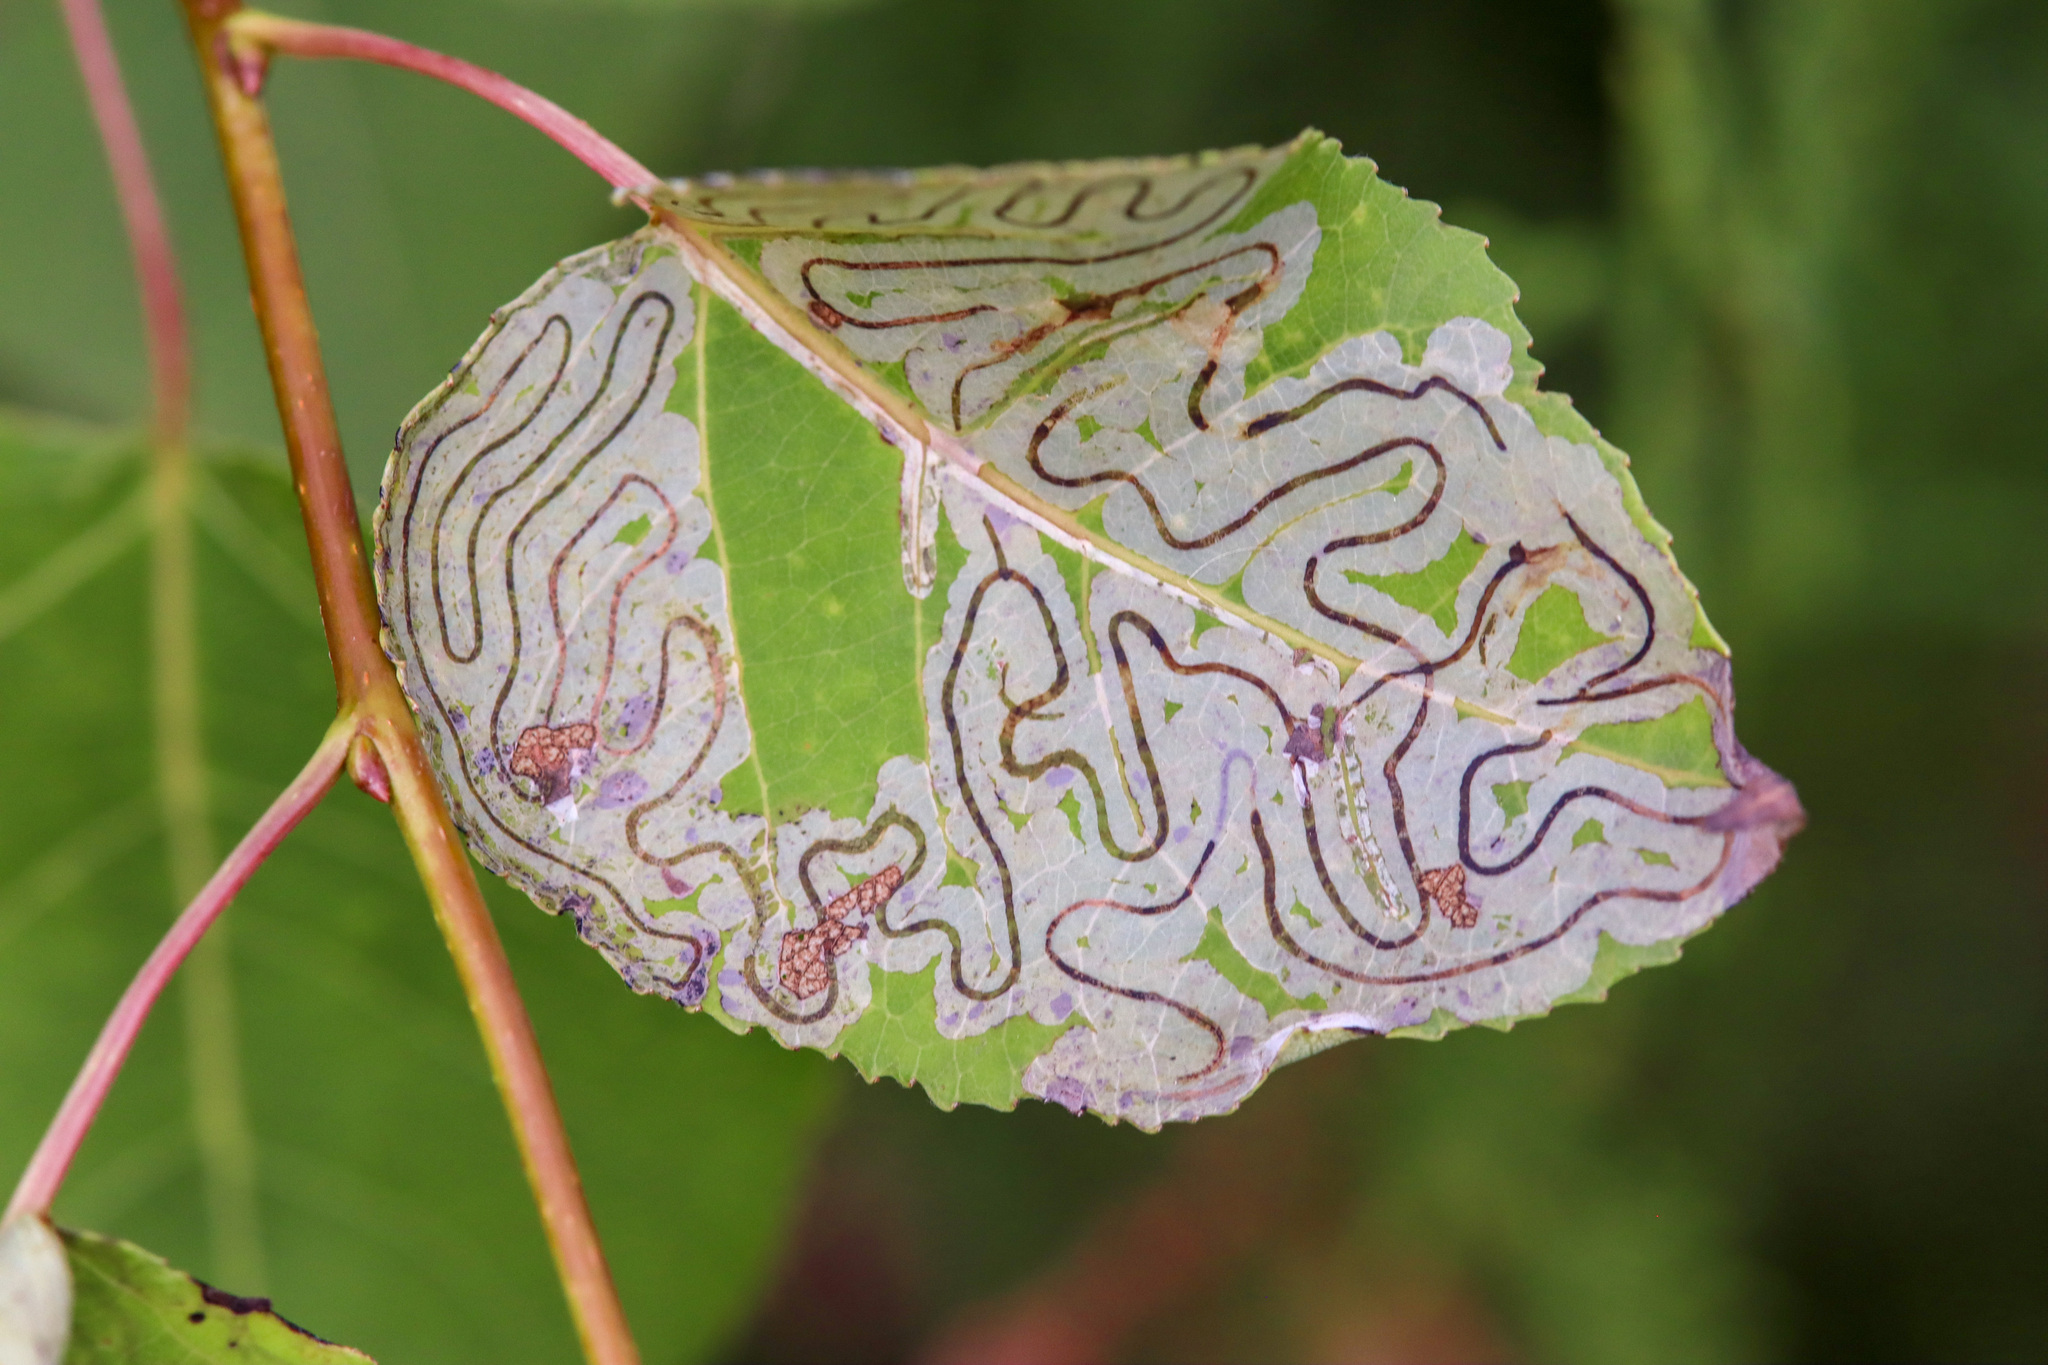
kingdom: Animalia
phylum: Arthropoda
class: Insecta
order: Lepidoptera
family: Gracillariidae
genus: Phyllocnistis
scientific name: Phyllocnistis populiella
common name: Aspen serpentine leafminer moth
